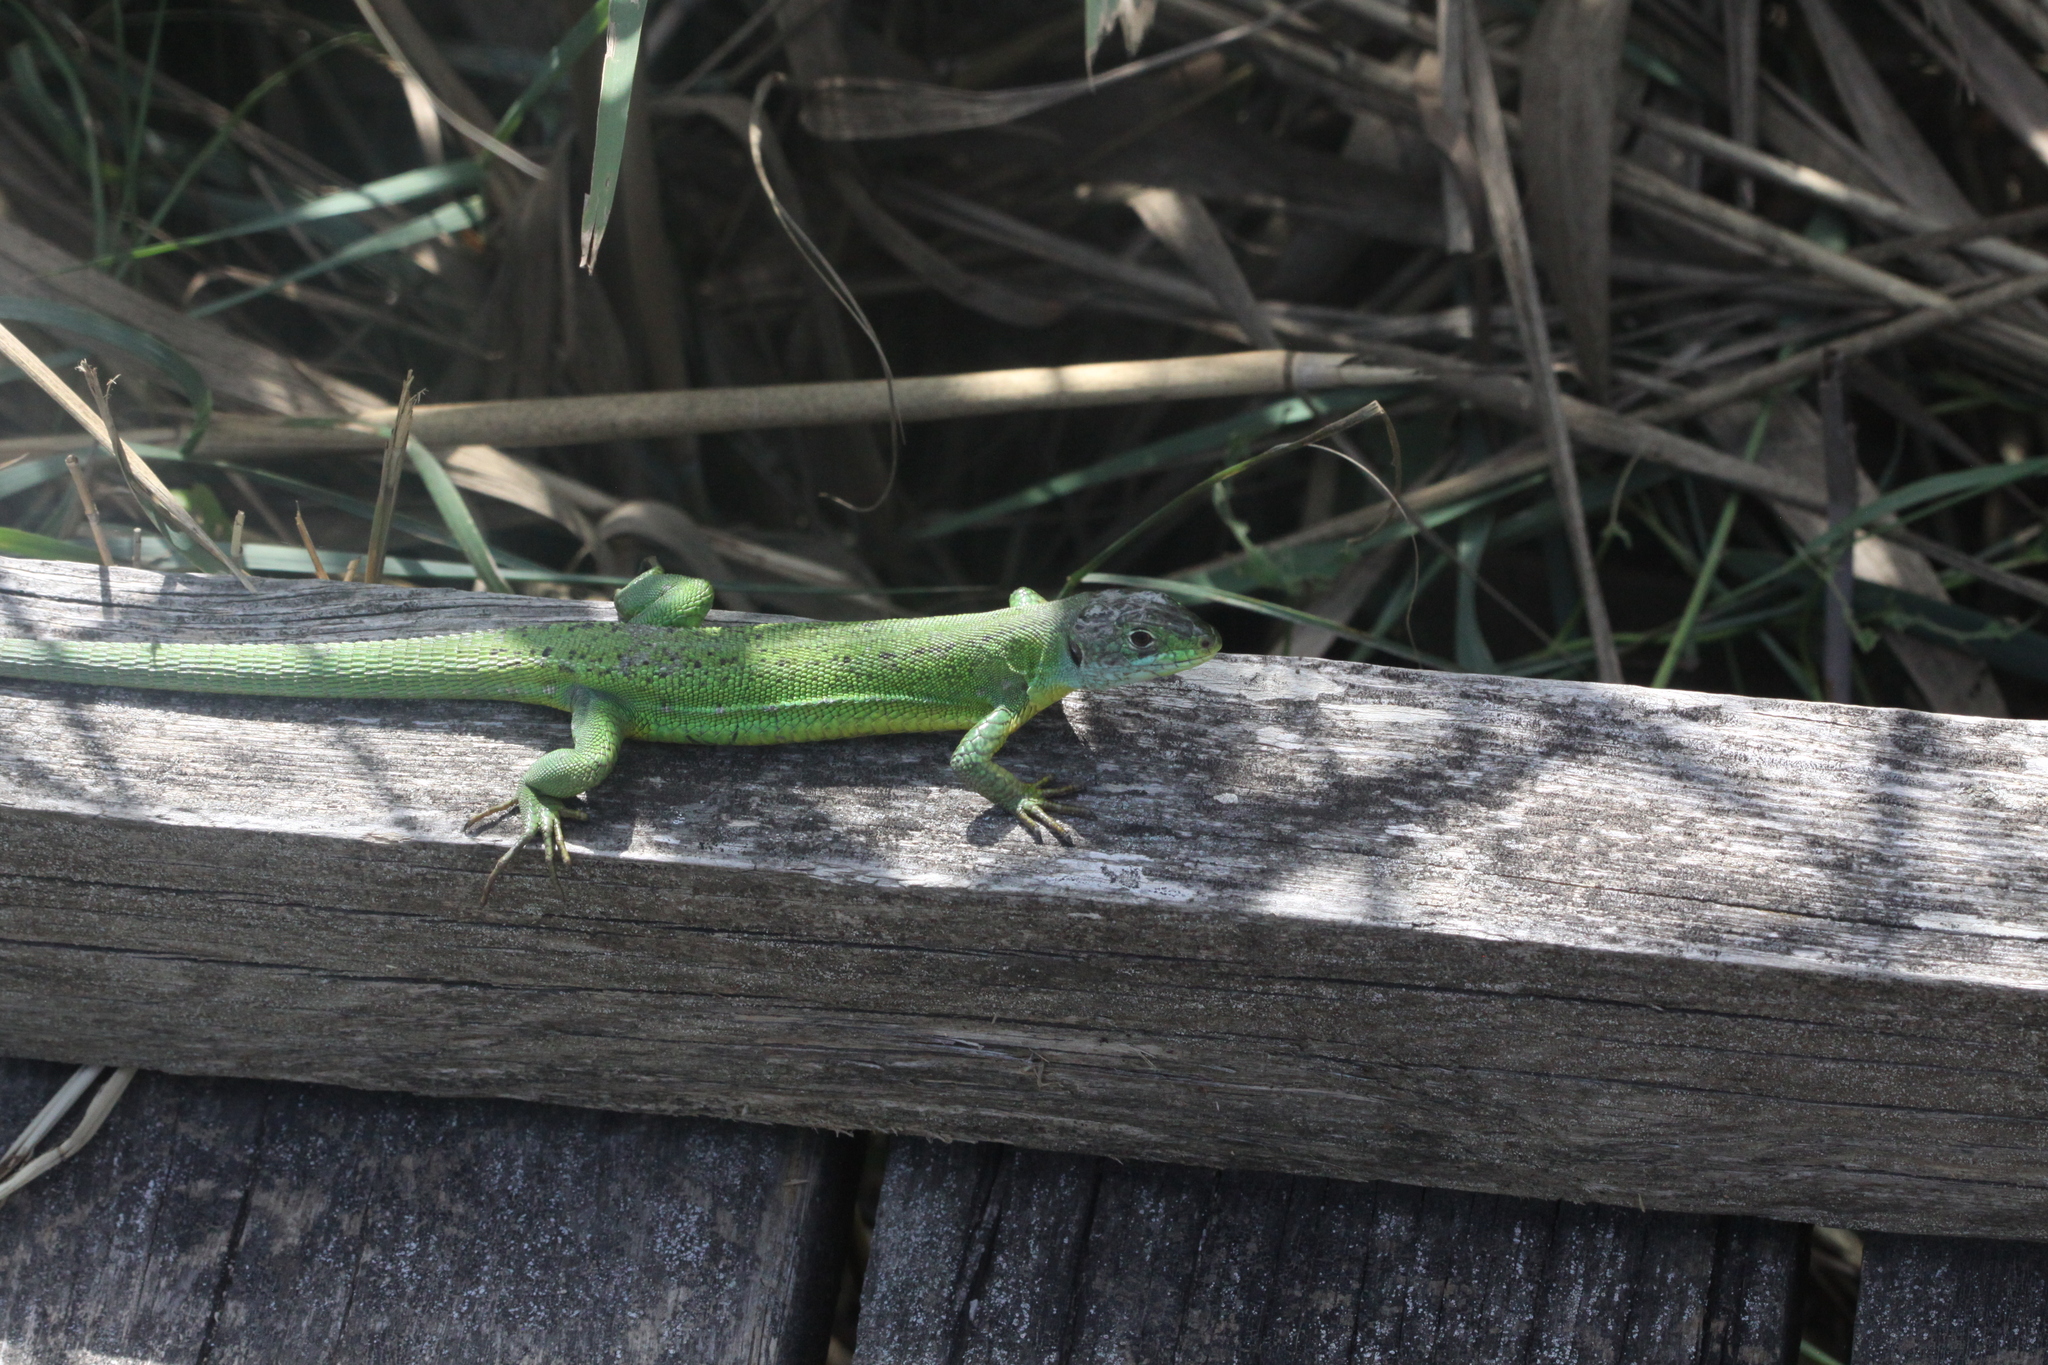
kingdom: Animalia
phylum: Chordata
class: Squamata
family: Lacertidae
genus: Lacerta
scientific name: Lacerta bilineata
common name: Western green lizard
